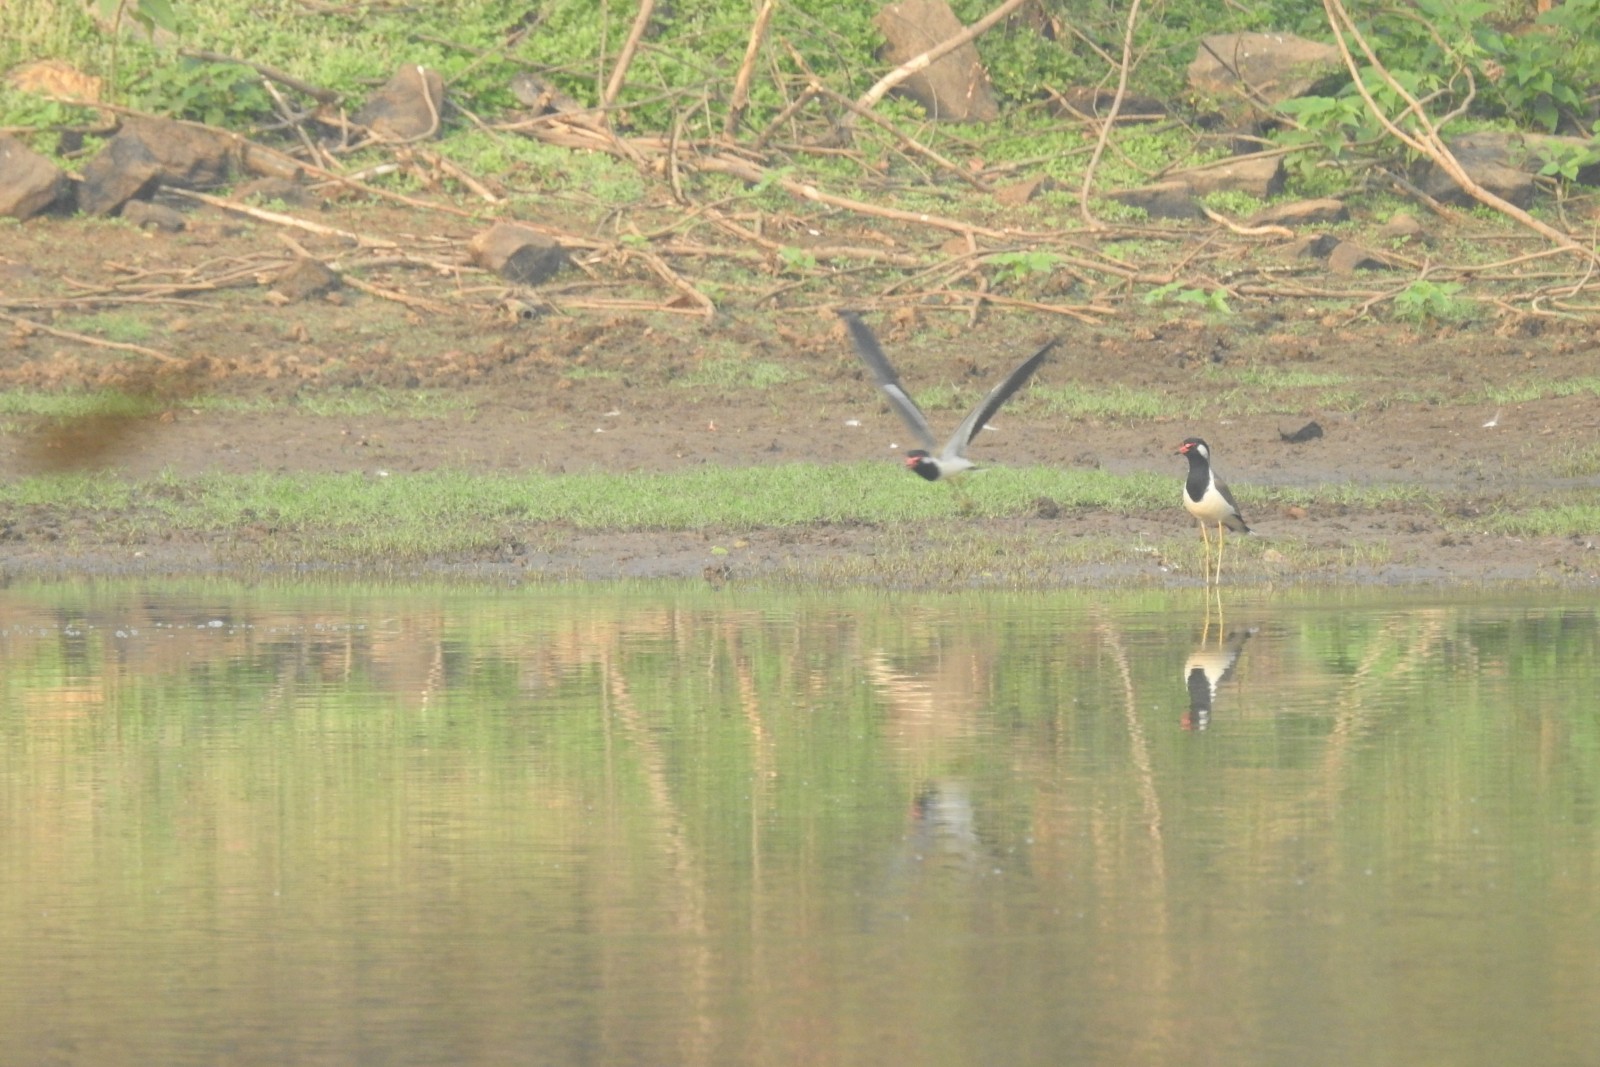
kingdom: Animalia
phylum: Chordata
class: Aves
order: Charadriiformes
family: Charadriidae
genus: Vanellus
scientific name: Vanellus indicus
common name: Red-wattled lapwing
